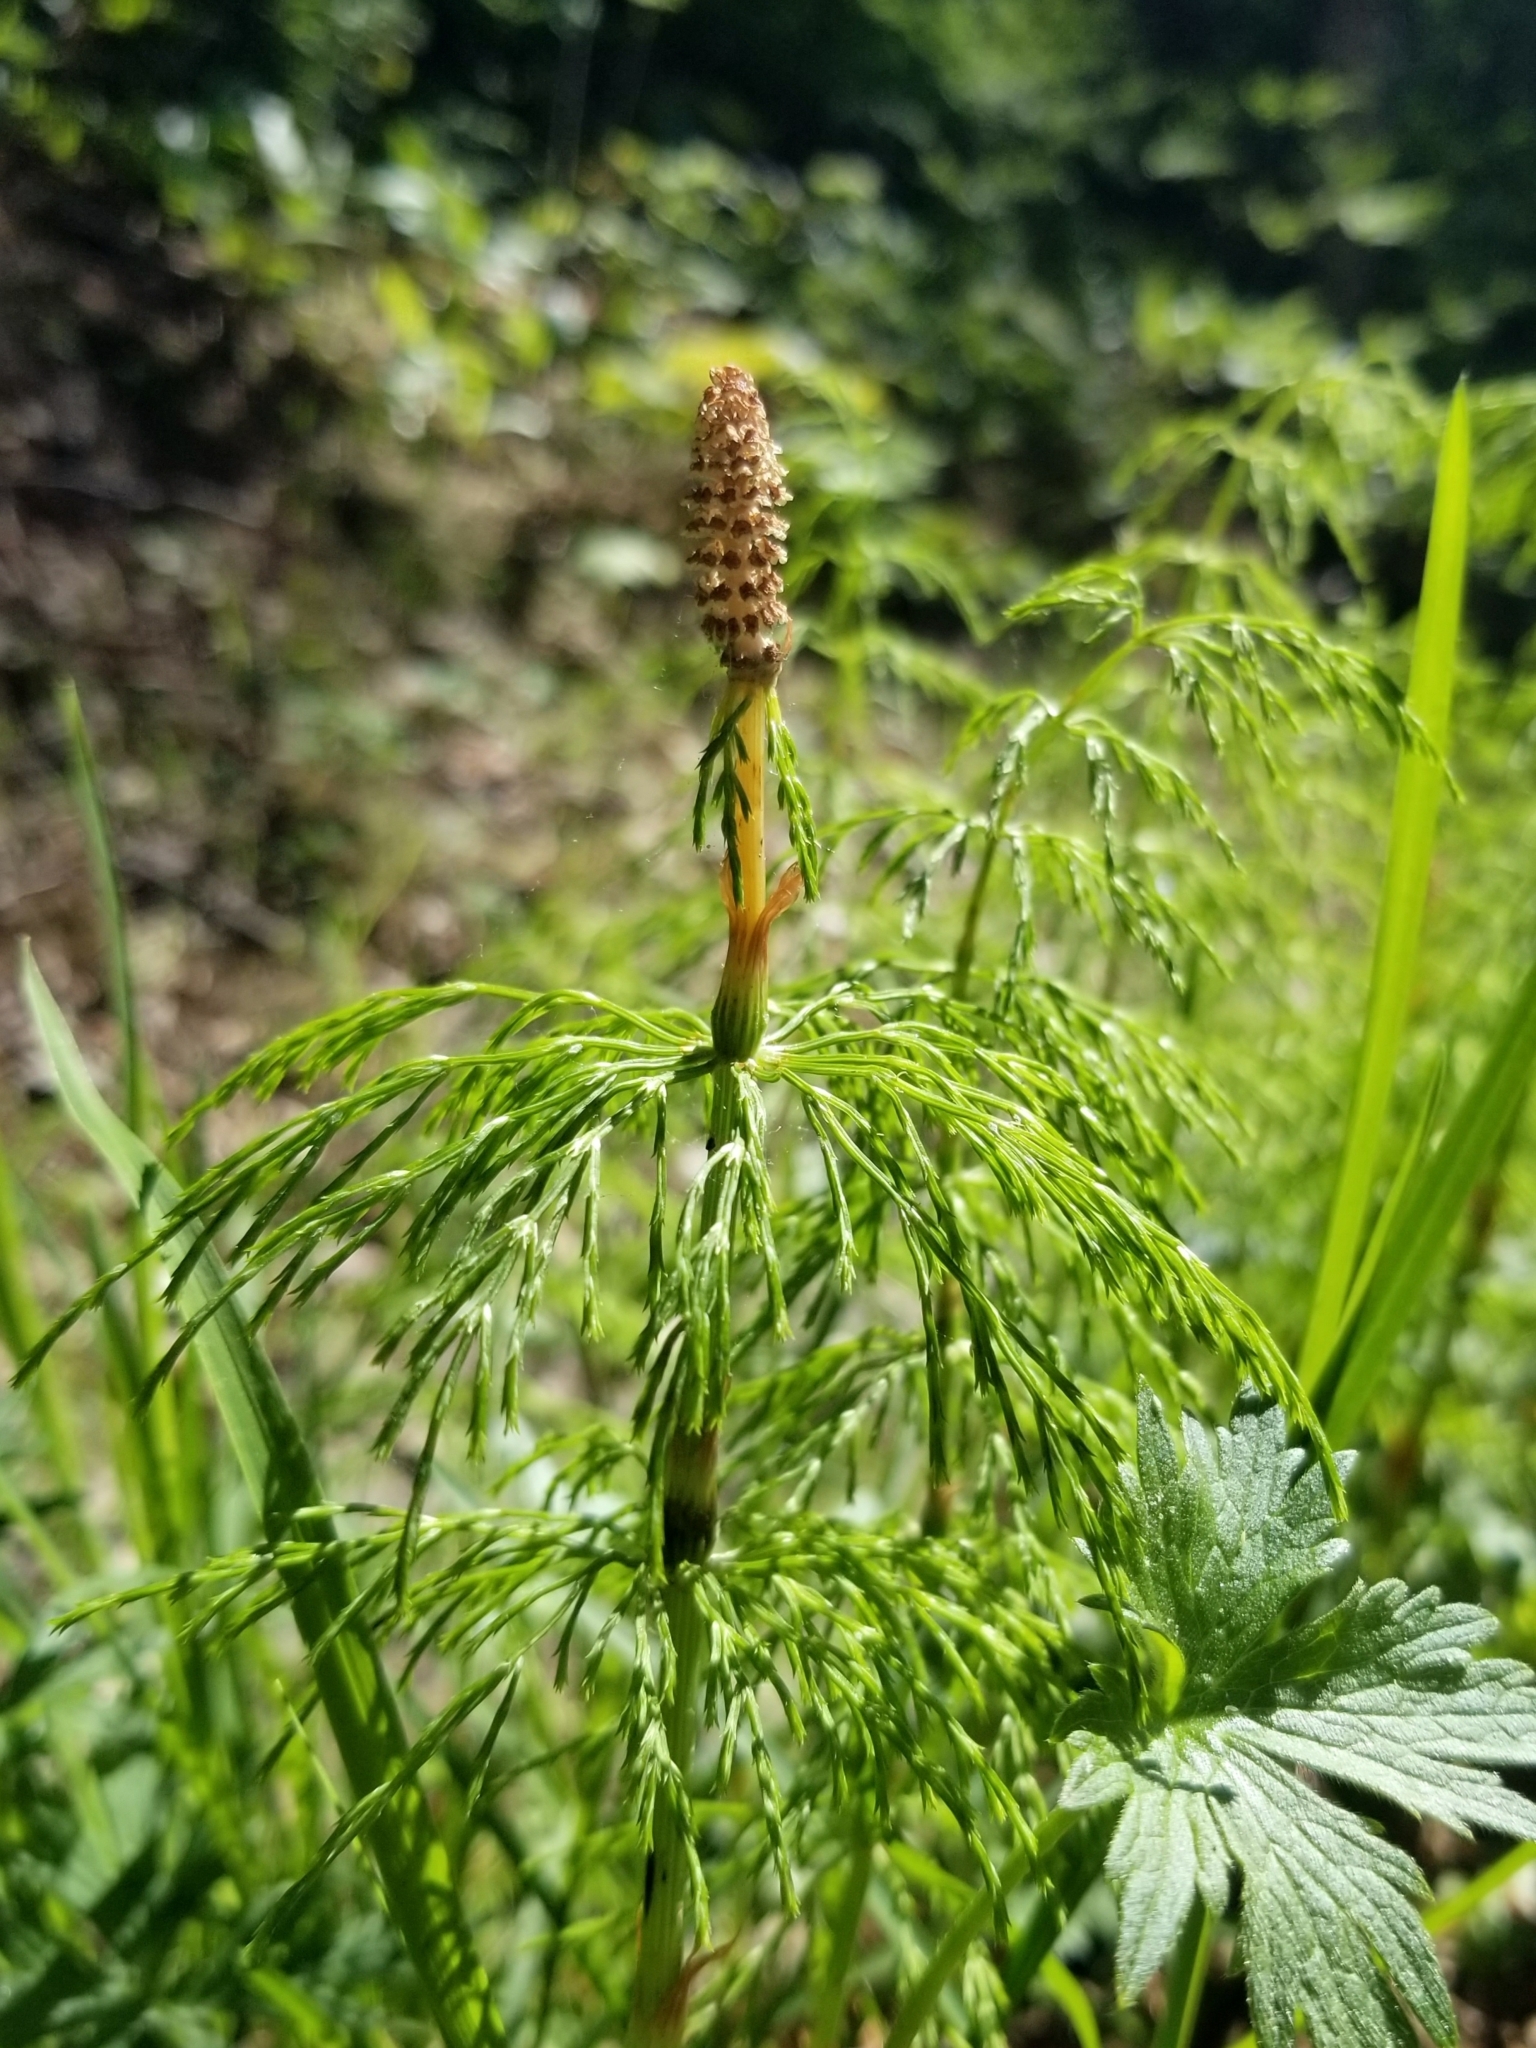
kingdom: Plantae
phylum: Tracheophyta
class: Polypodiopsida
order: Equisetales
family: Equisetaceae
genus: Equisetum
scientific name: Equisetum sylvaticum
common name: Wood horsetail
